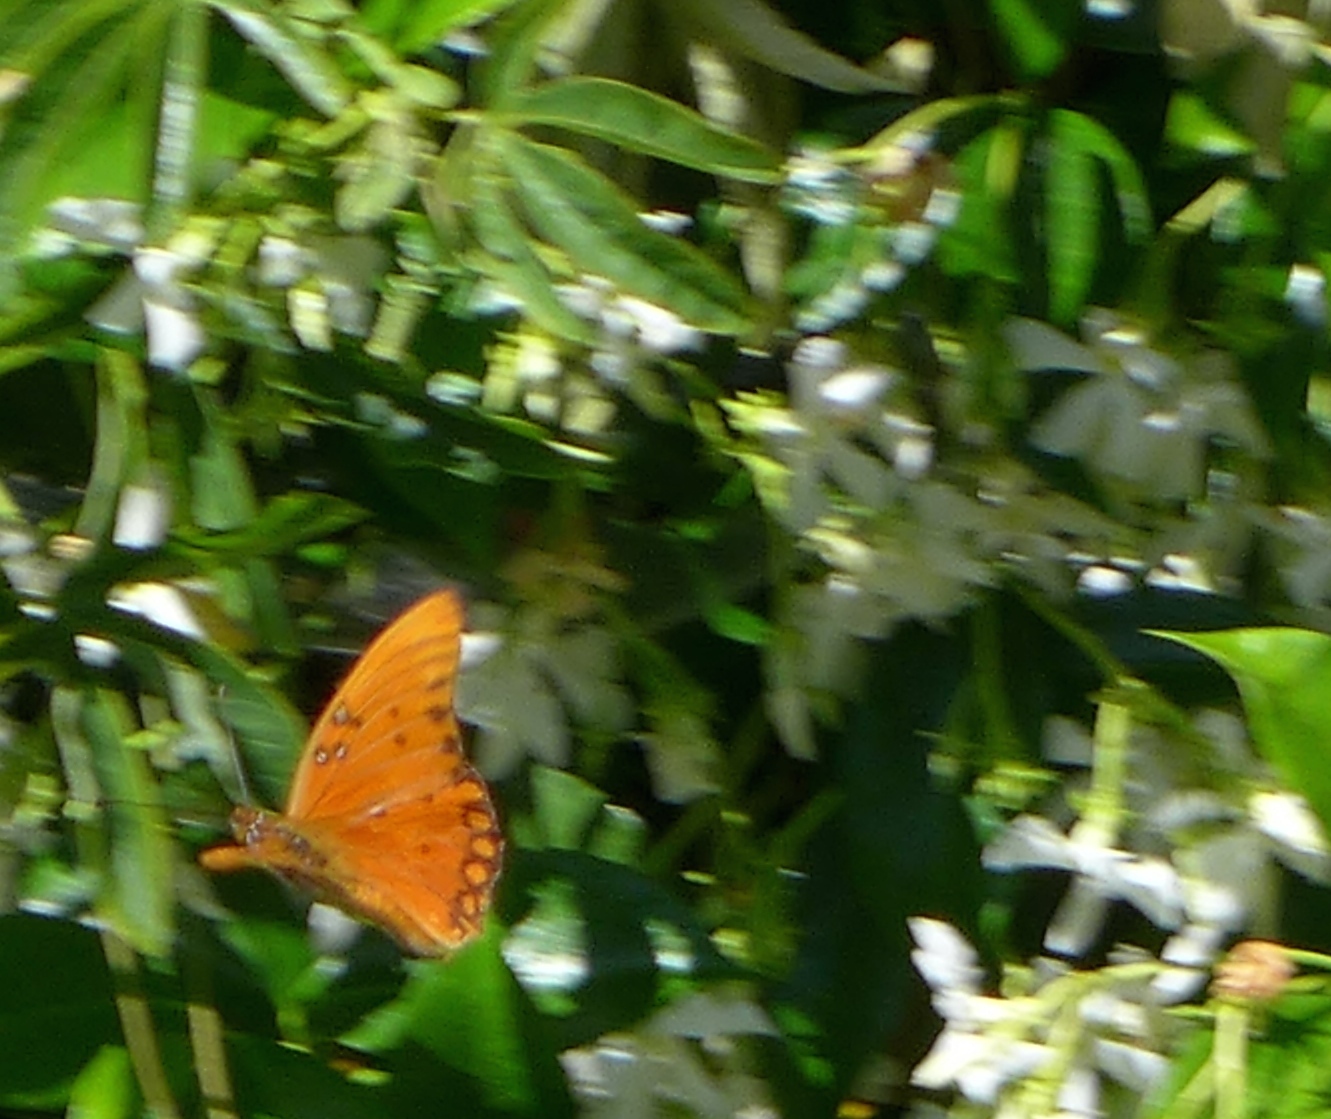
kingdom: Animalia
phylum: Arthropoda
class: Insecta
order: Lepidoptera
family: Nymphalidae
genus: Dione
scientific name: Dione vanillae
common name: Gulf fritillary
